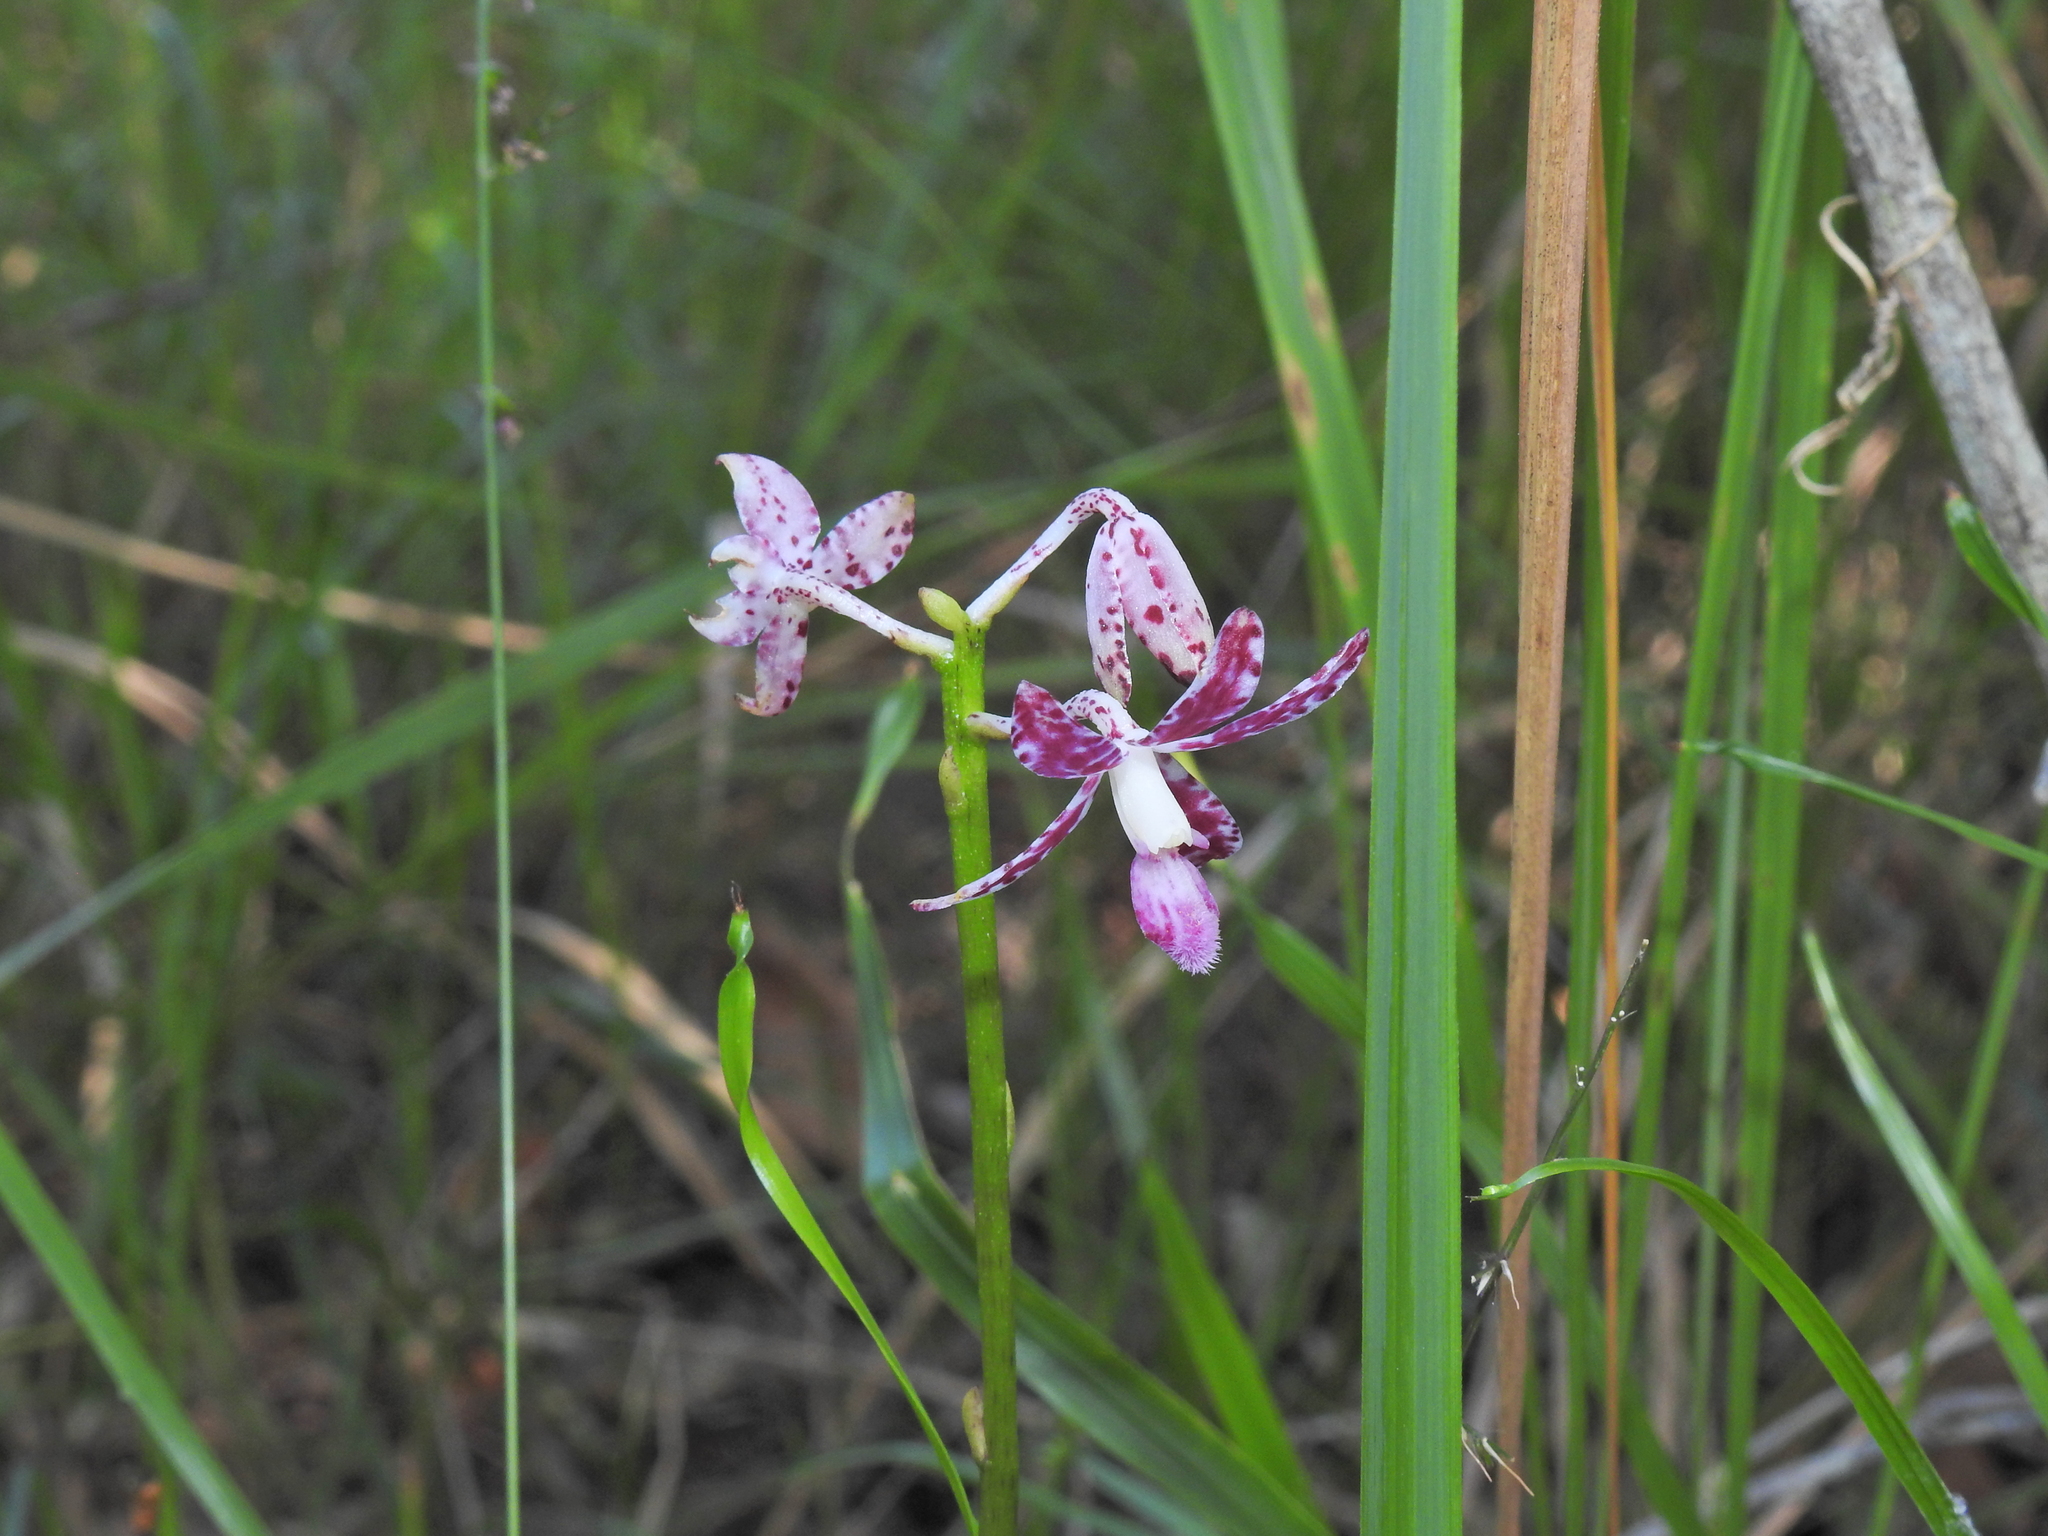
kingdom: Plantae
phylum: Tracheophyta
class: Liliopsida
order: Asparagales
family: Orchidaceae
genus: Dipodium
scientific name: Dipodium variegatum
